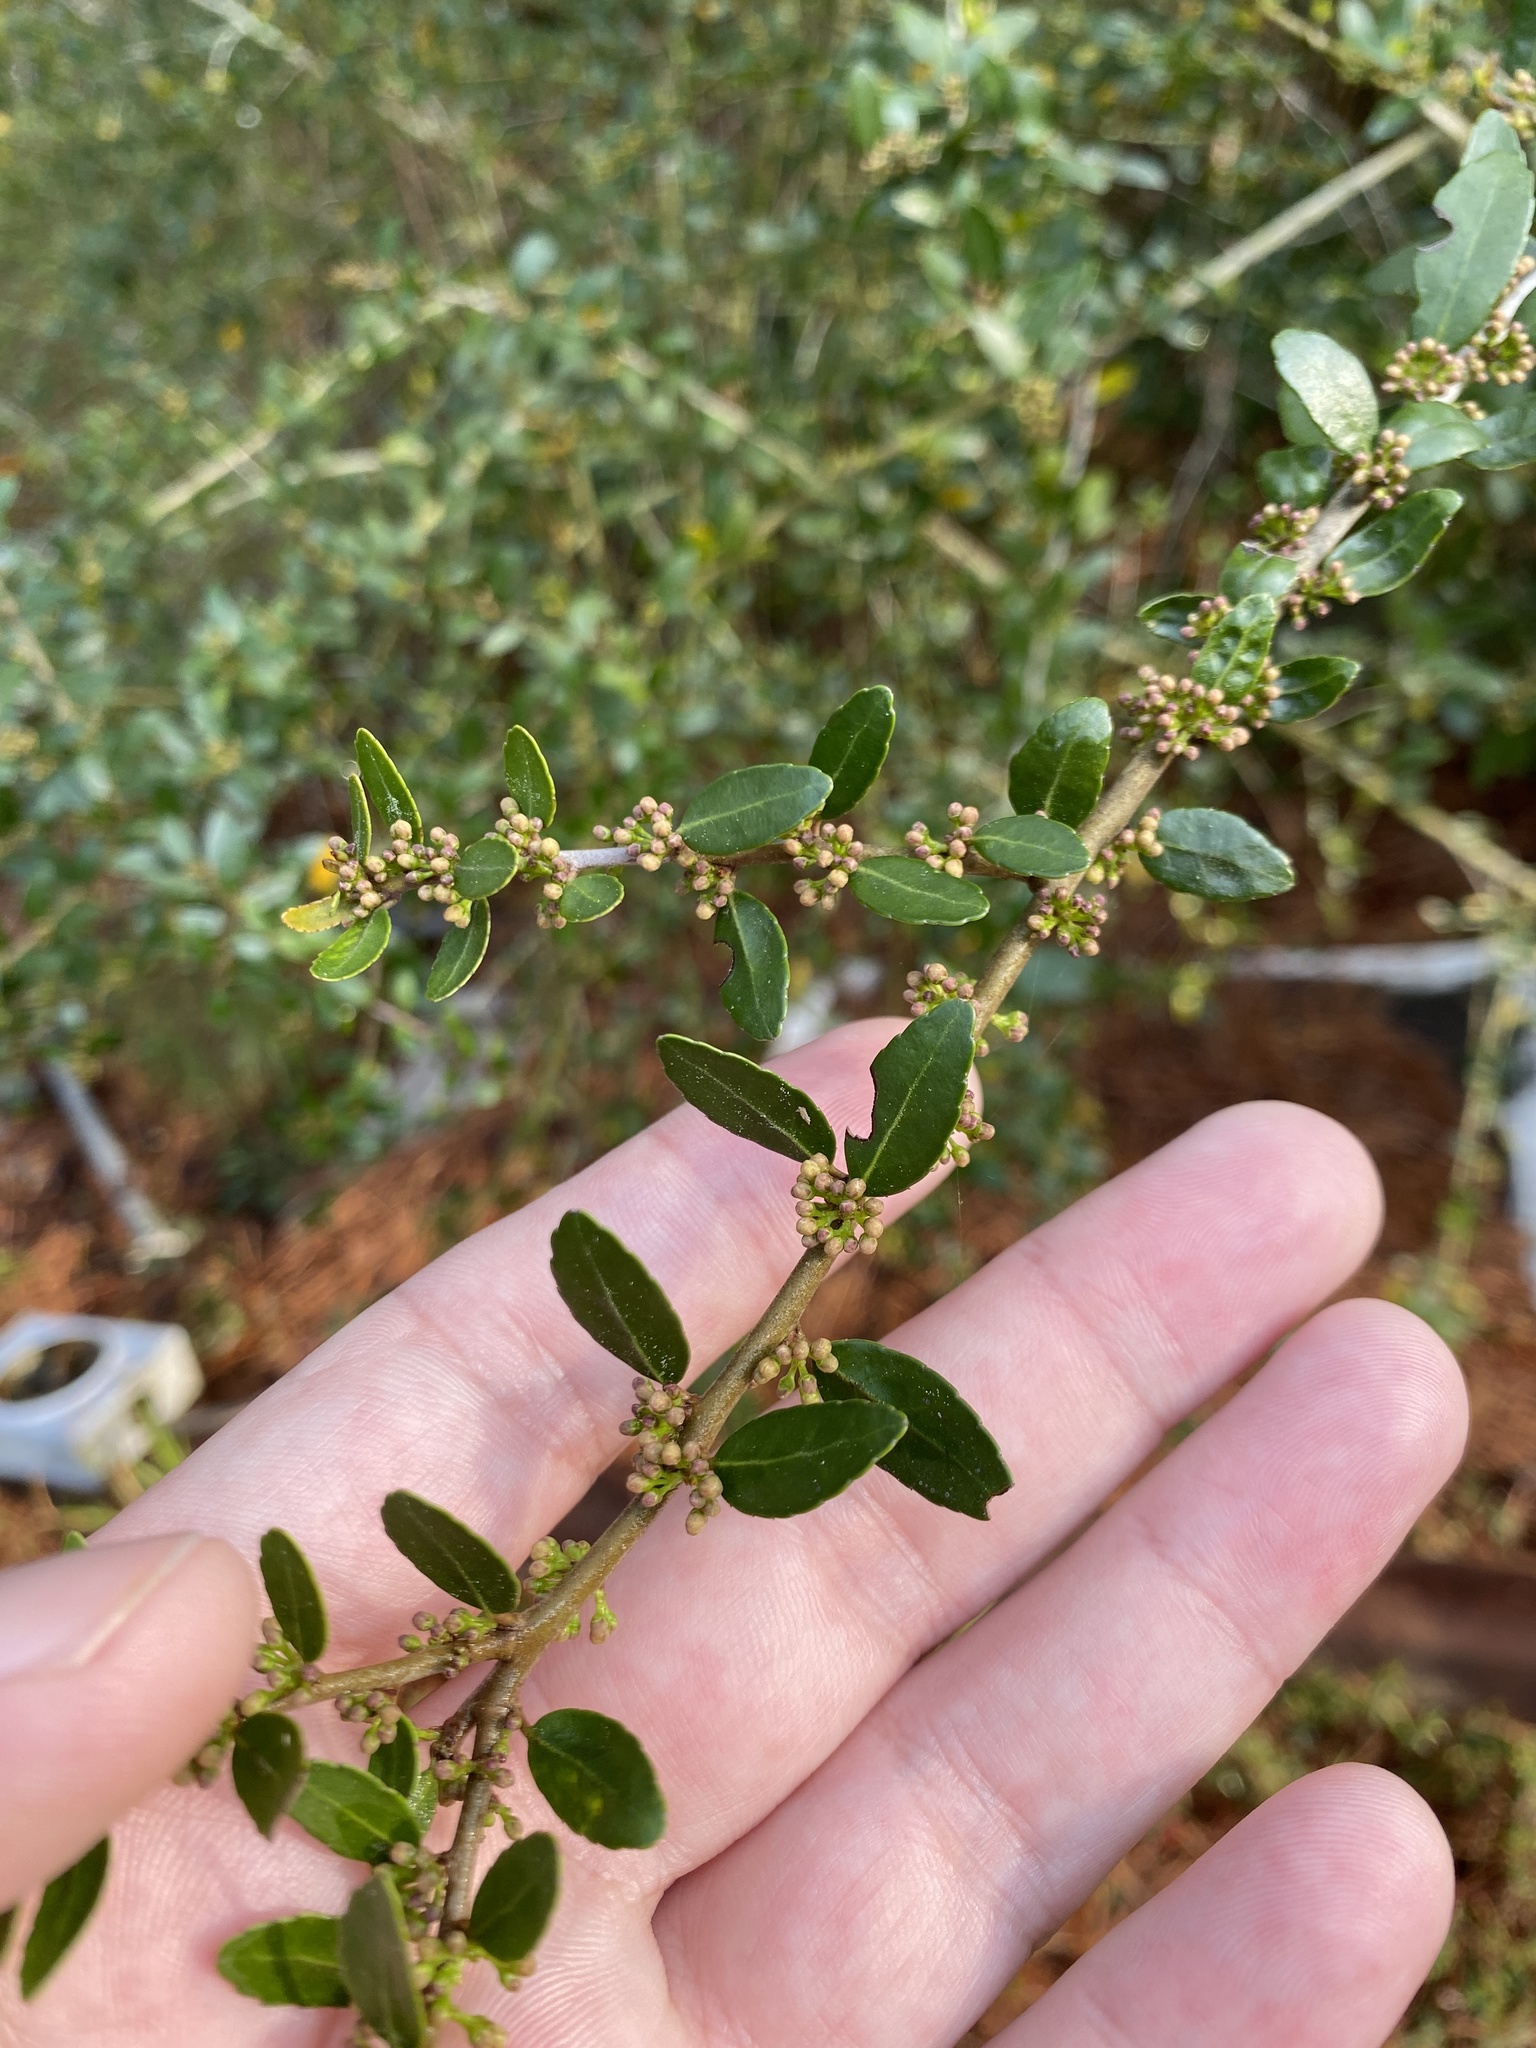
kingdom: Plantae
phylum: Tracheophyta
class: Magnoliopsida
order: Aquifoliales
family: Aquifoliaceae
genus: Ilex
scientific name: Ilex vomitoria
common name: Yaupon holly
